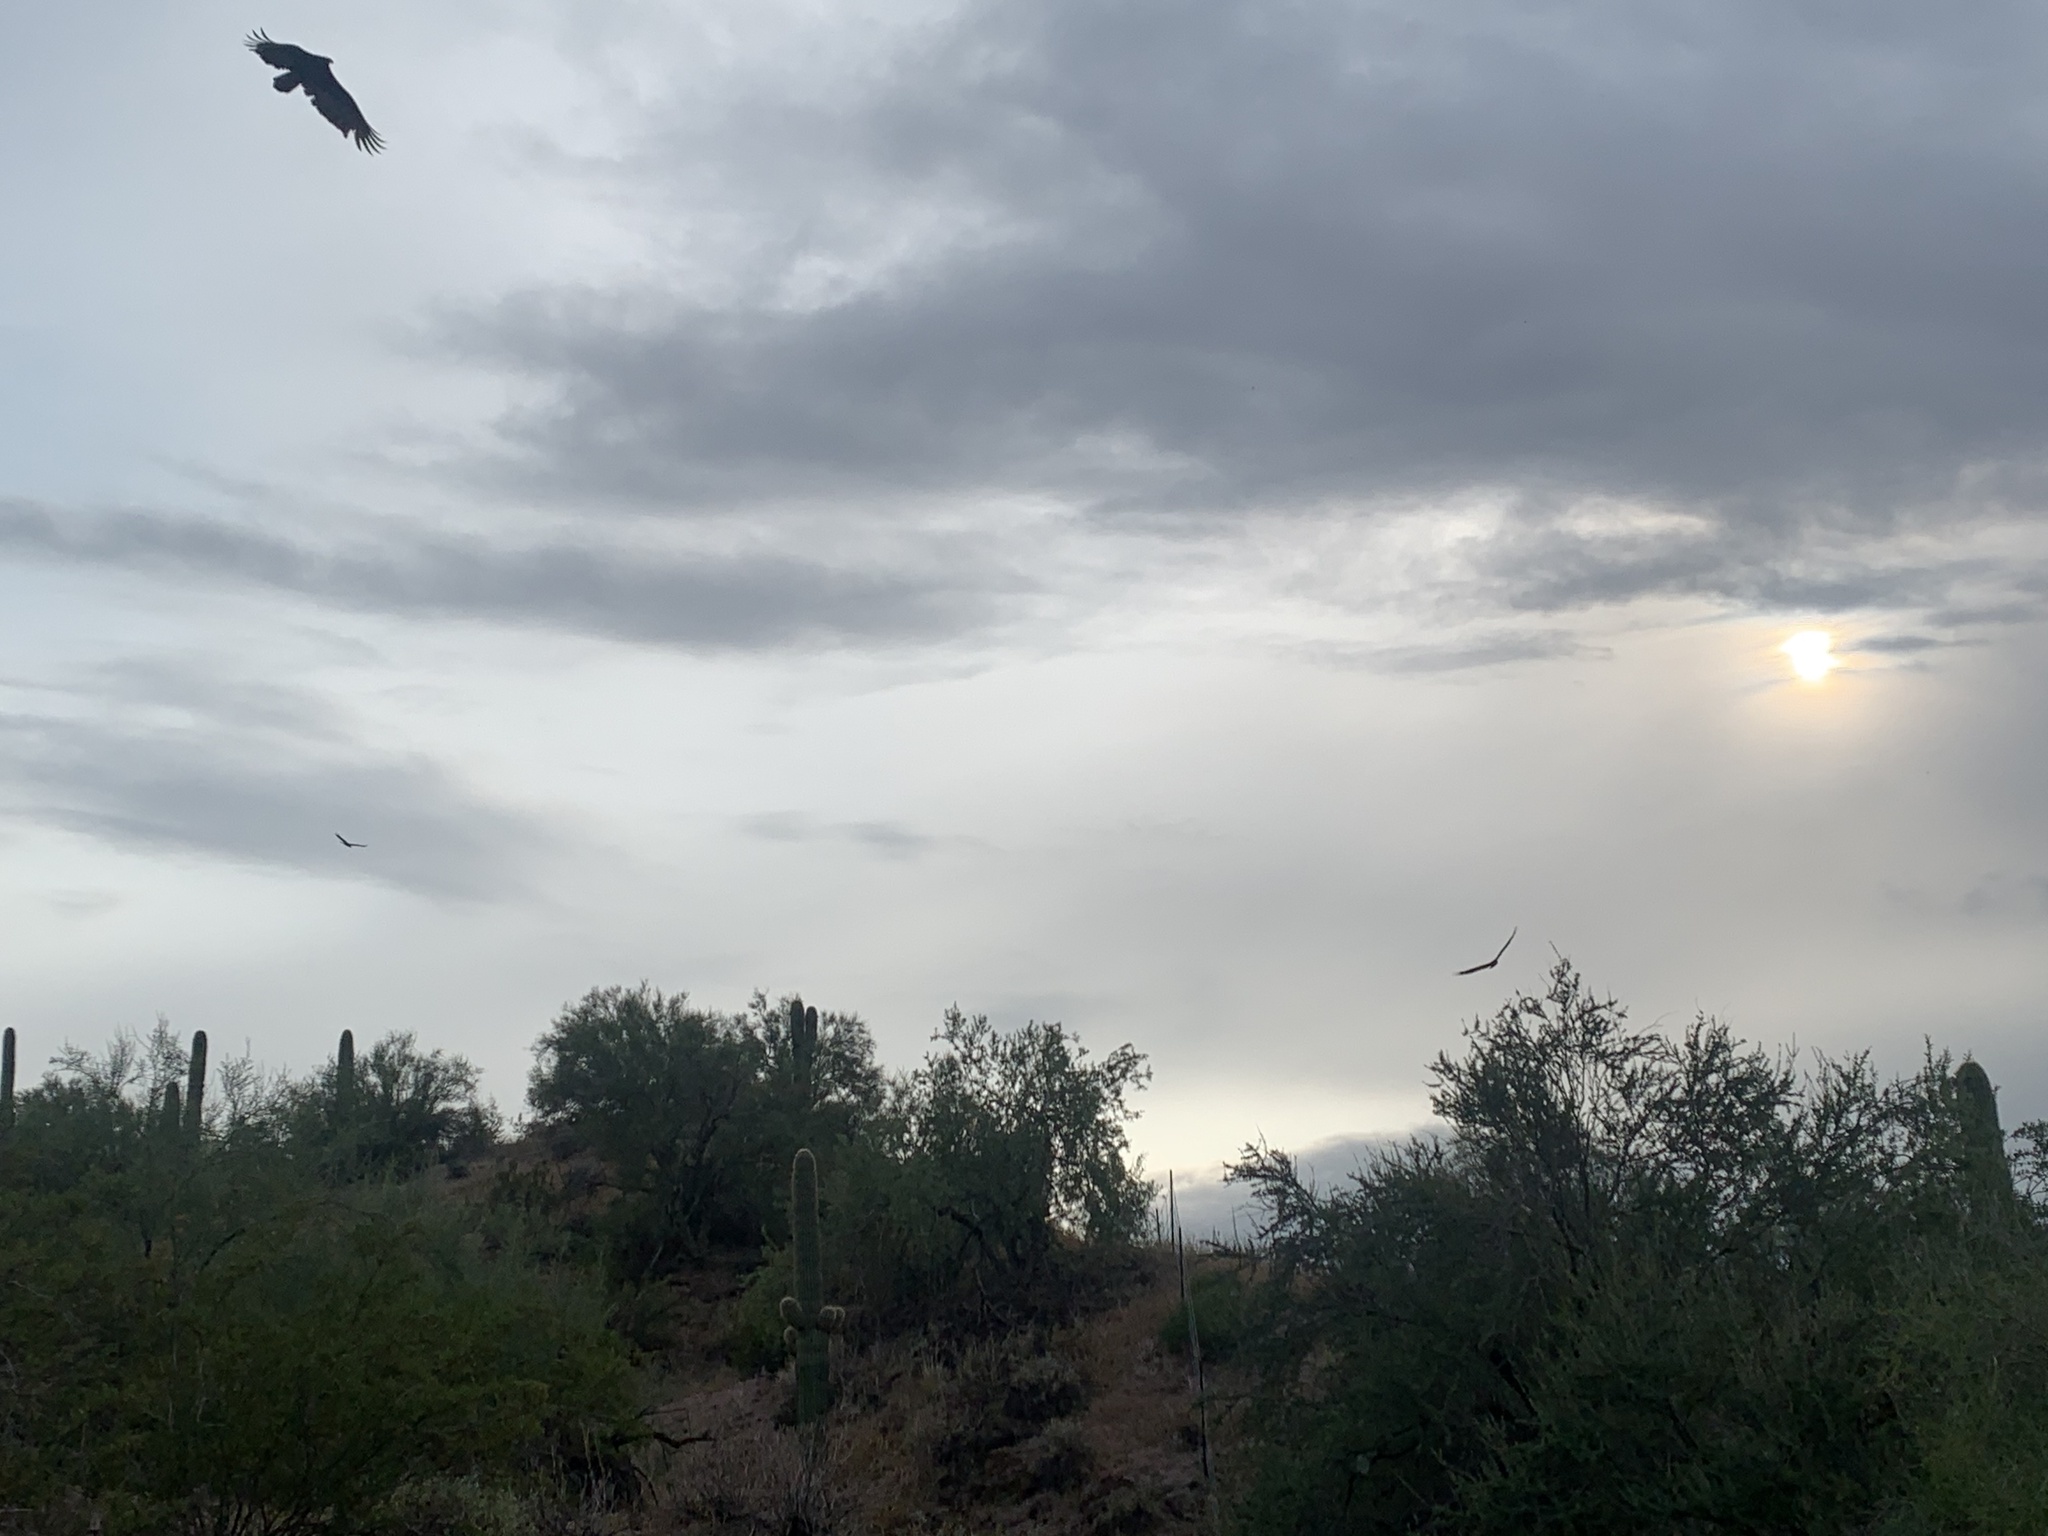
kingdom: Animalia
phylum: Chordata
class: Aves
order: Accipitriformes
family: Cathartidae
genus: Cathartes
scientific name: Cathartes aura
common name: Turkey vulture
